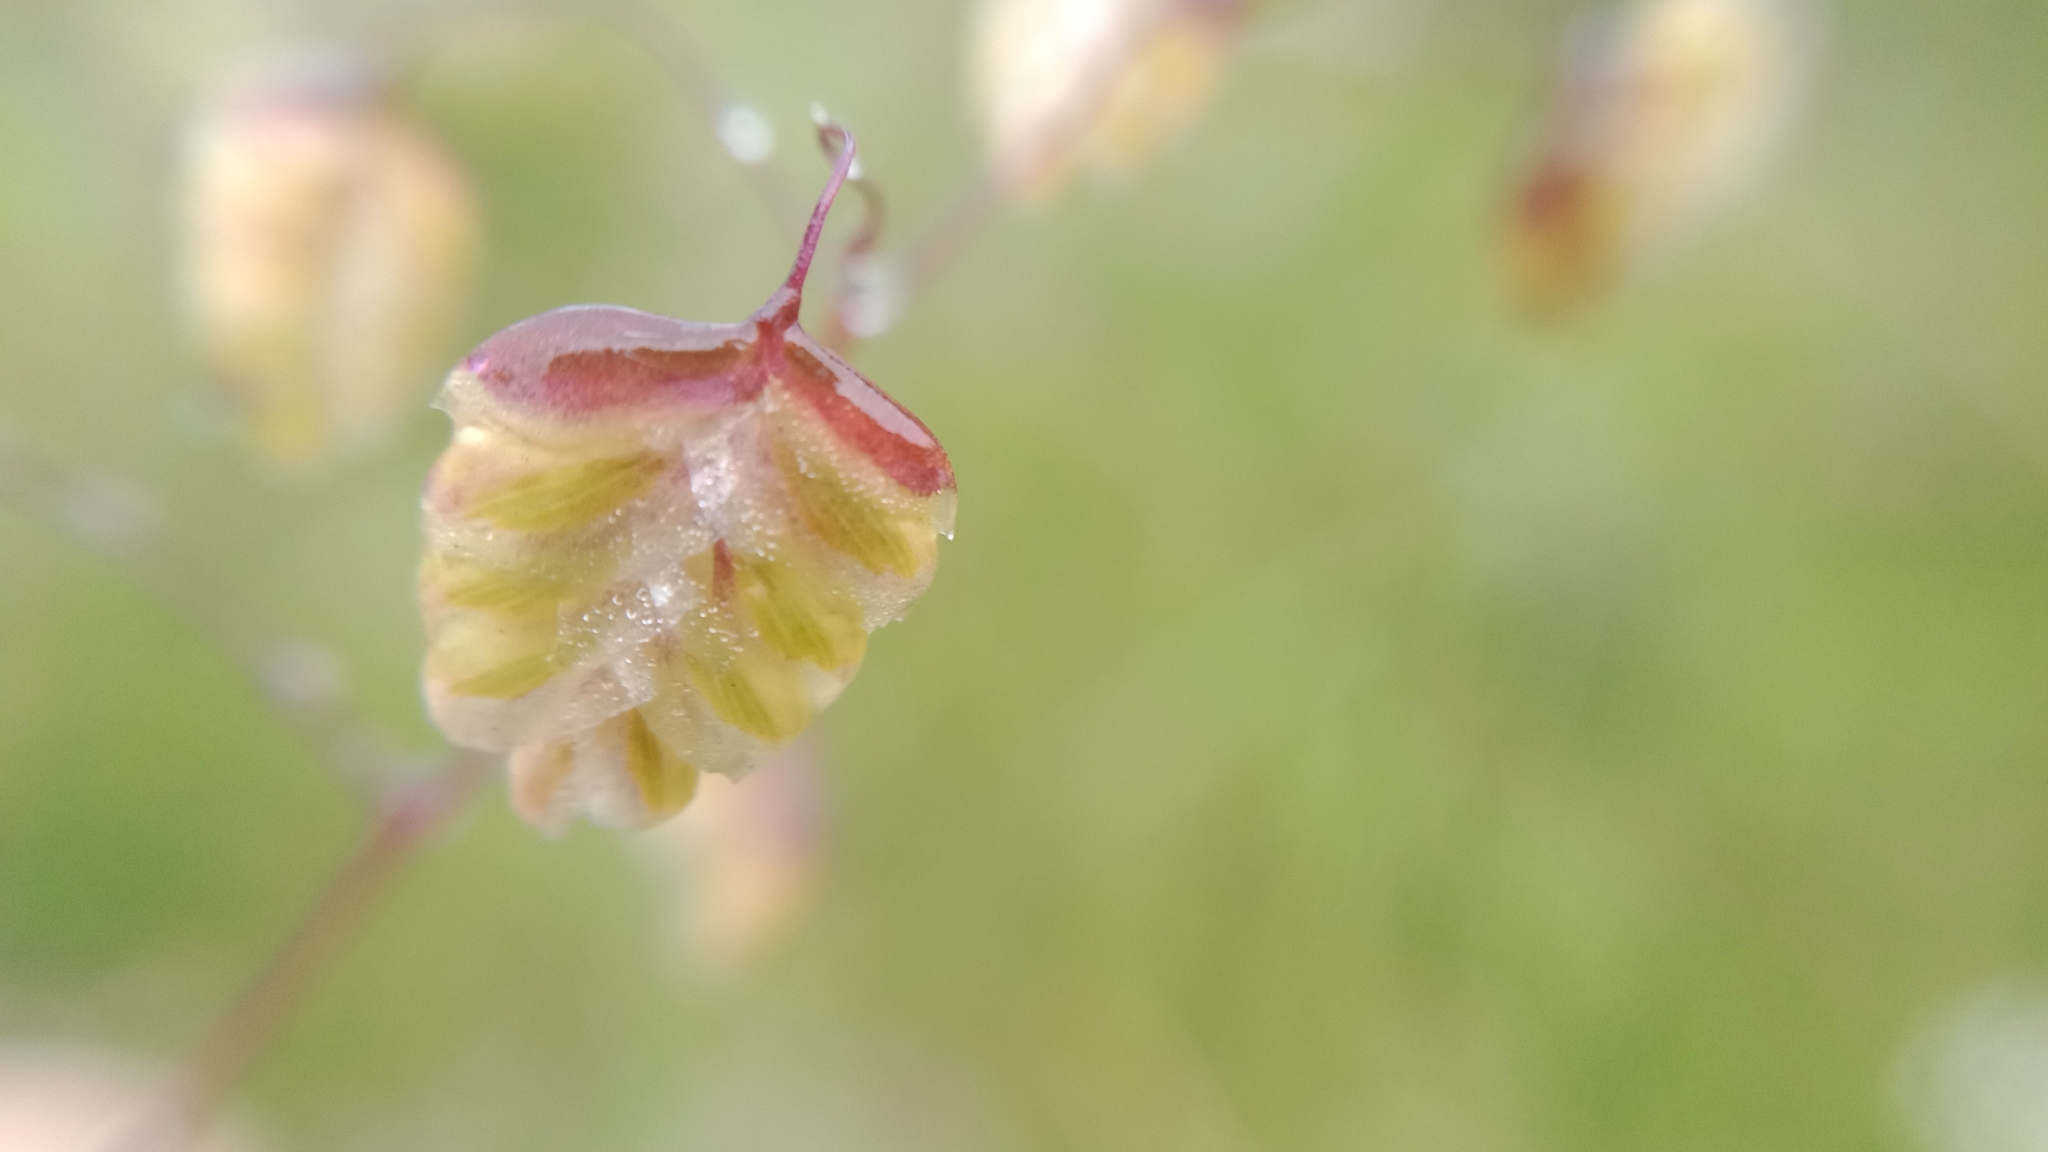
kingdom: Plantae
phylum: Tracheophyta
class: Liliopsida
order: Poales
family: Poaceae
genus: Briza
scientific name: Briza media
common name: Quaking grass
